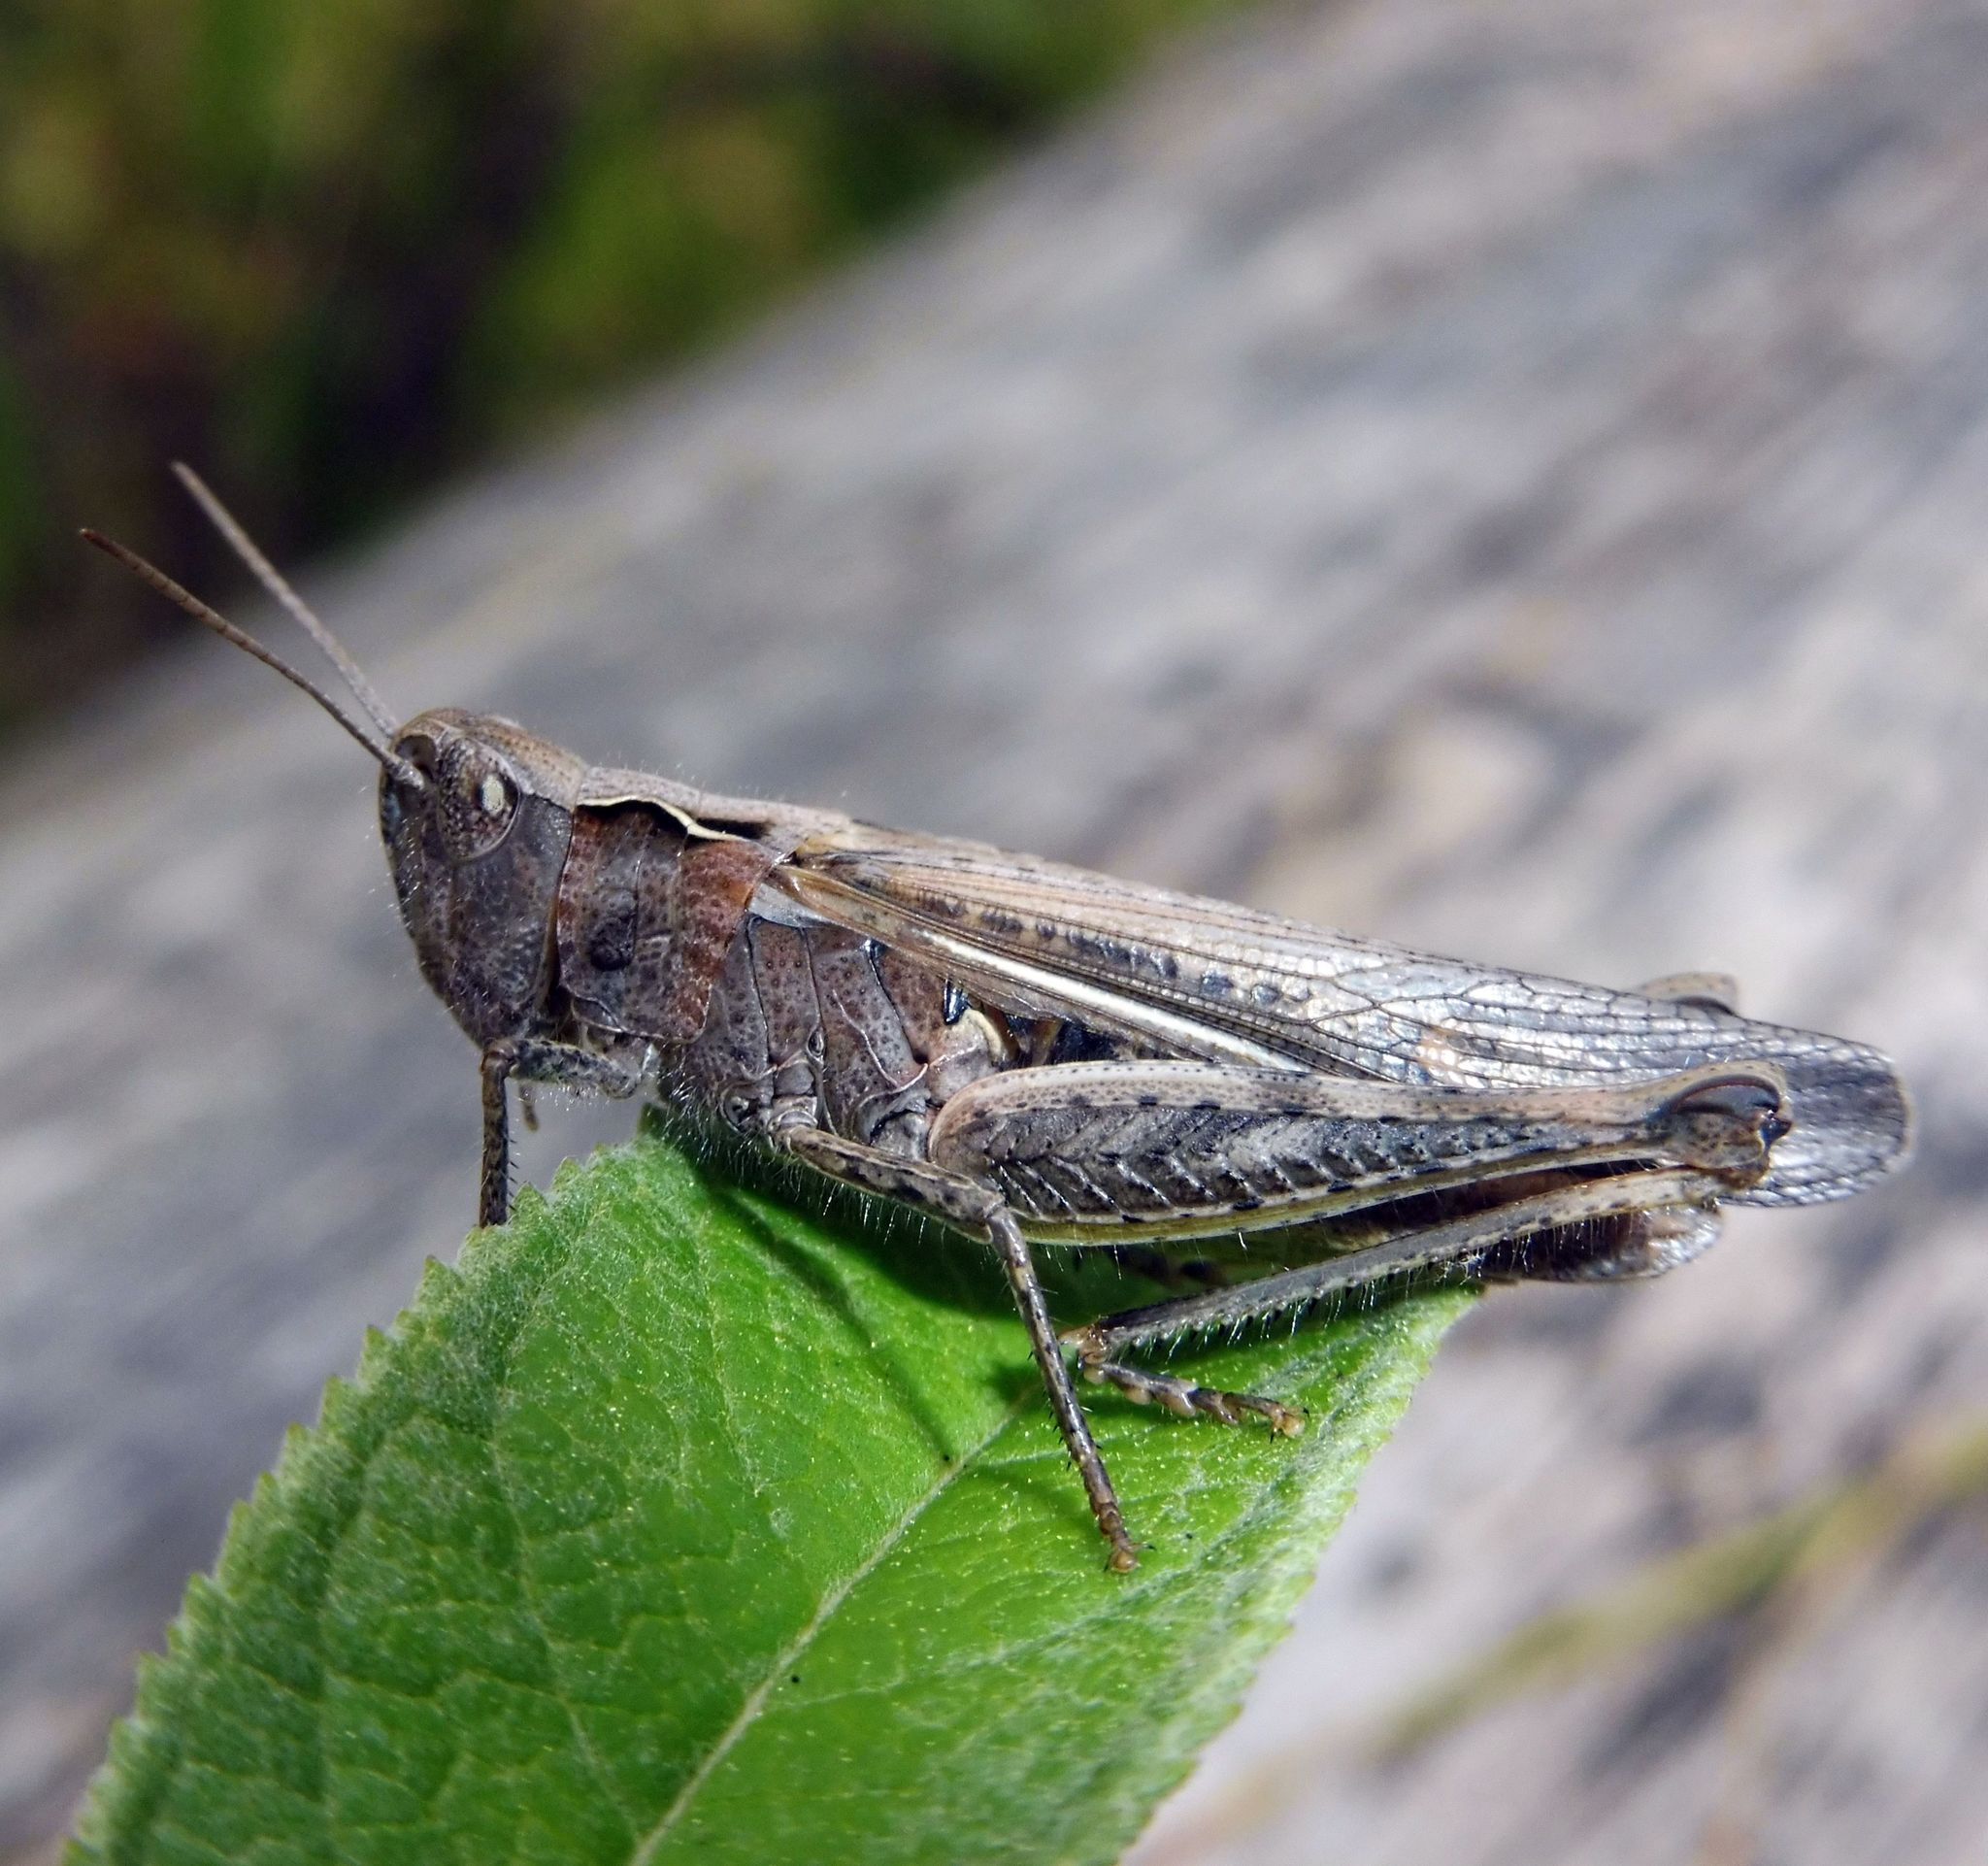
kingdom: Animalia
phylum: Arthropoda
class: Insecta
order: Orthoptera
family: Acrididae
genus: Chorthippus
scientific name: Chorthippus brunneus
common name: Field grasshopper
